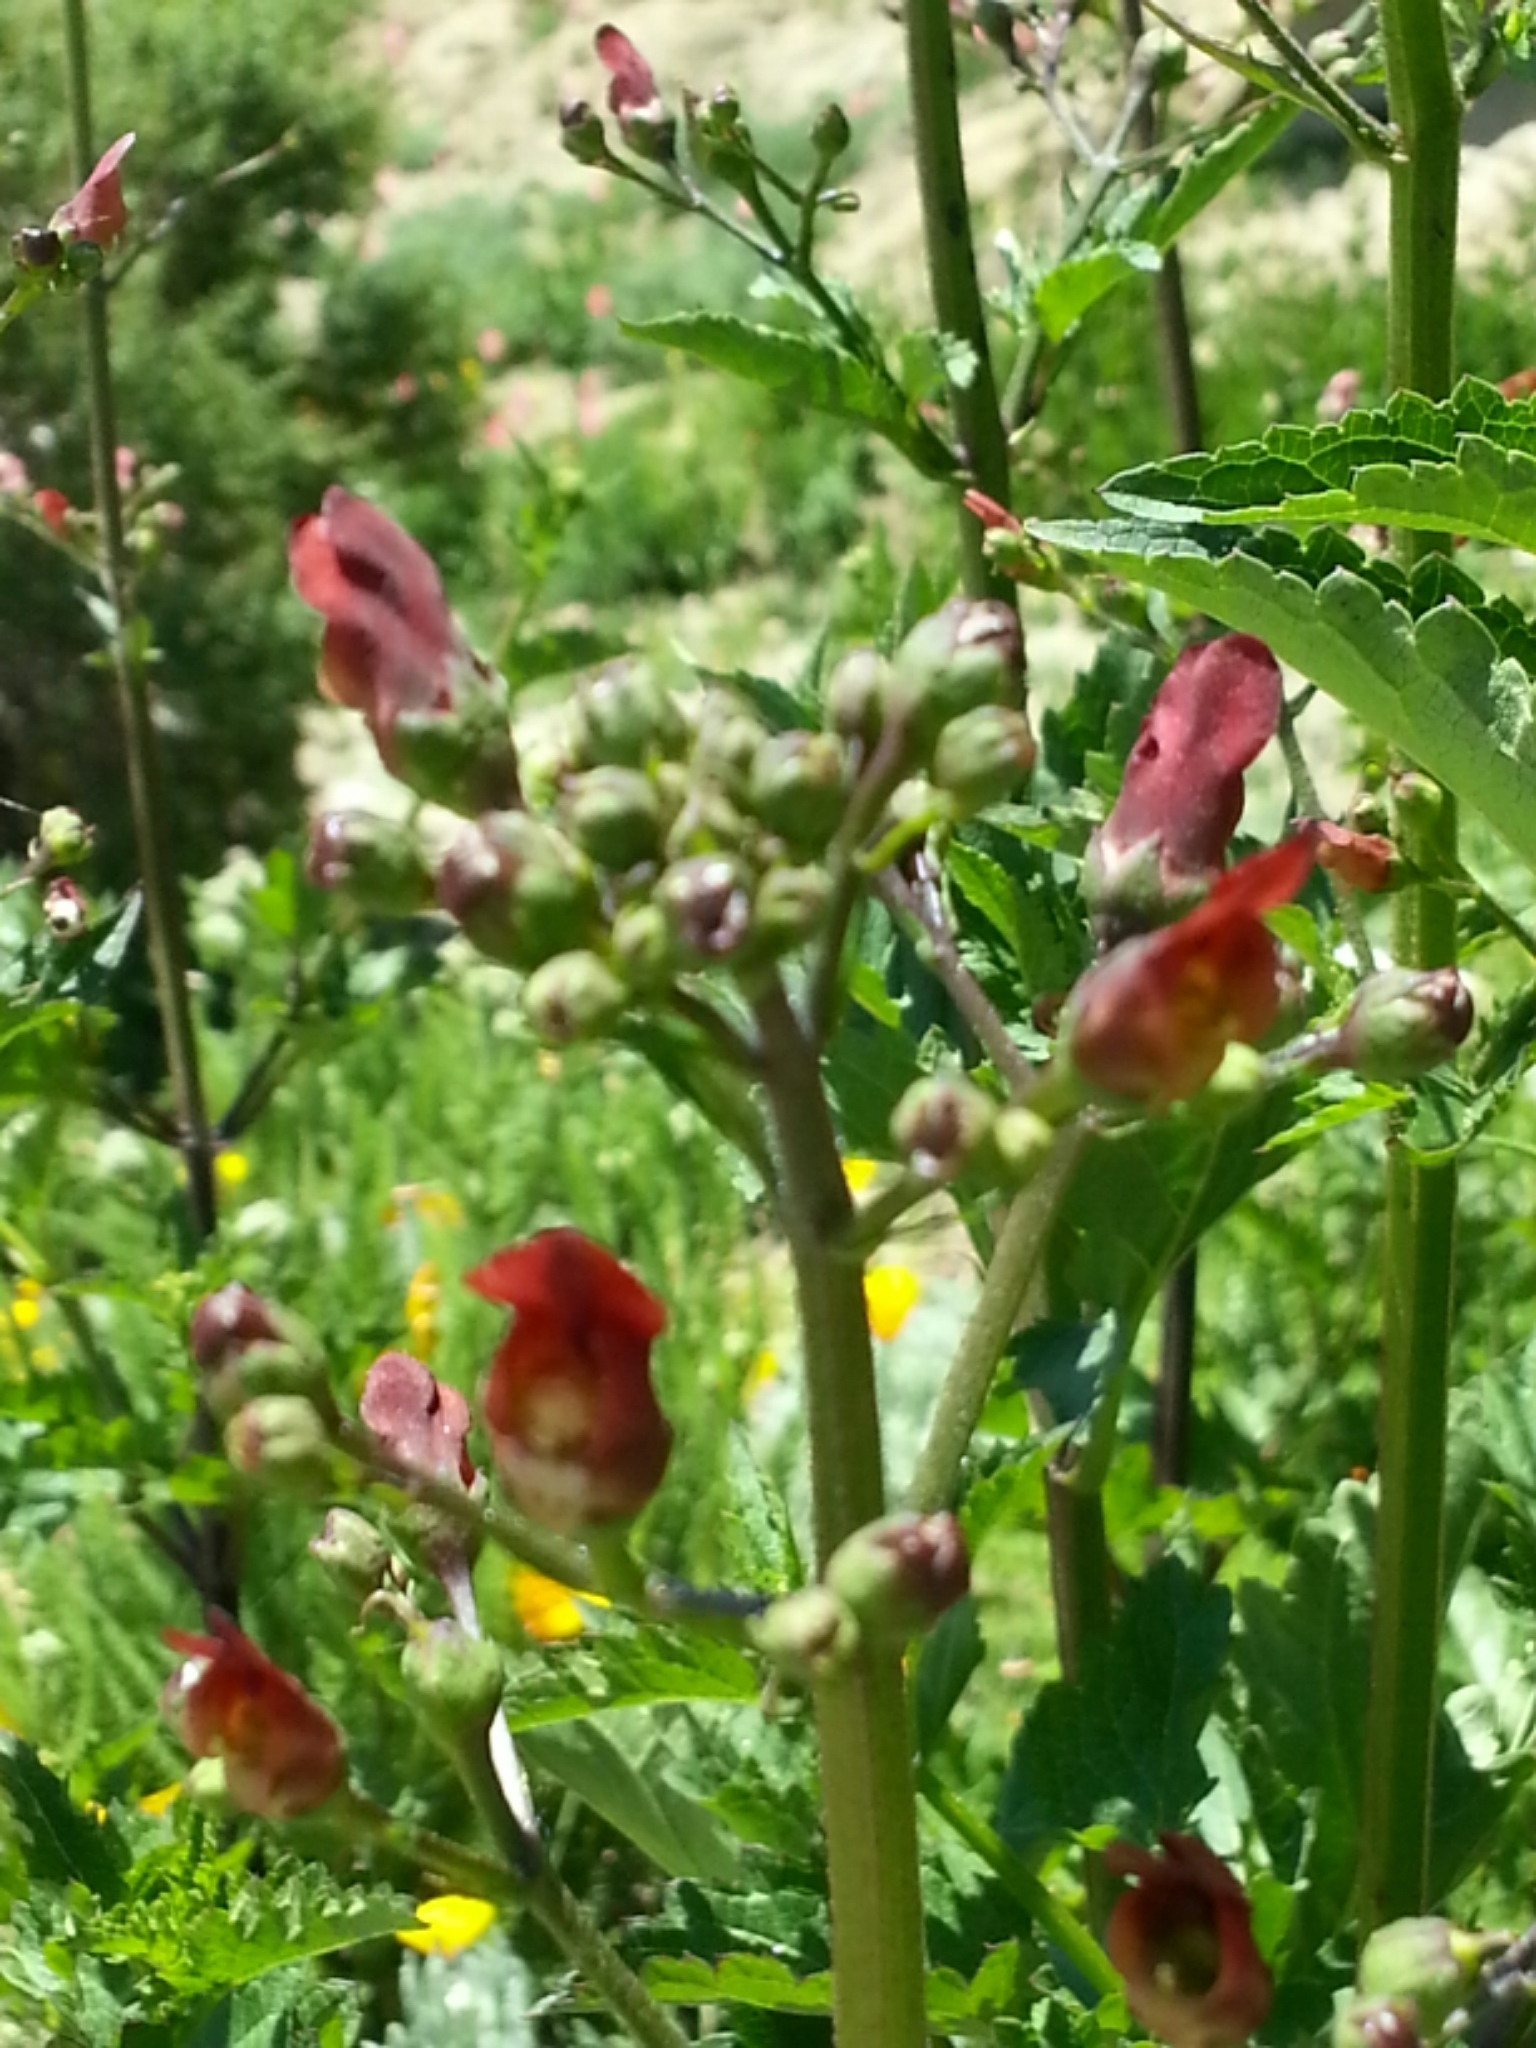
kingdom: Plantae
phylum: Tracheophyta
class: Magnoliopsida
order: Lamiales
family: Scrophulariaceae
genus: Scrophularia
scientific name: Scrophularia californica
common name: California figwort
